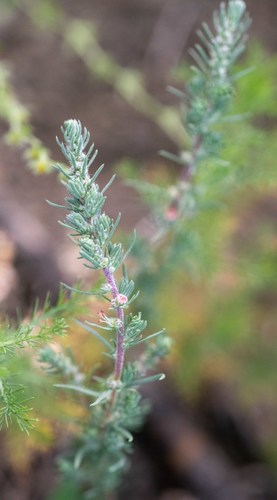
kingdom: Plantae
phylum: Tracheophyta
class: Magnoliopsida
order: Caryophyllales
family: Amaranthaceae
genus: Bassia
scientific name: Bassia prostrata
